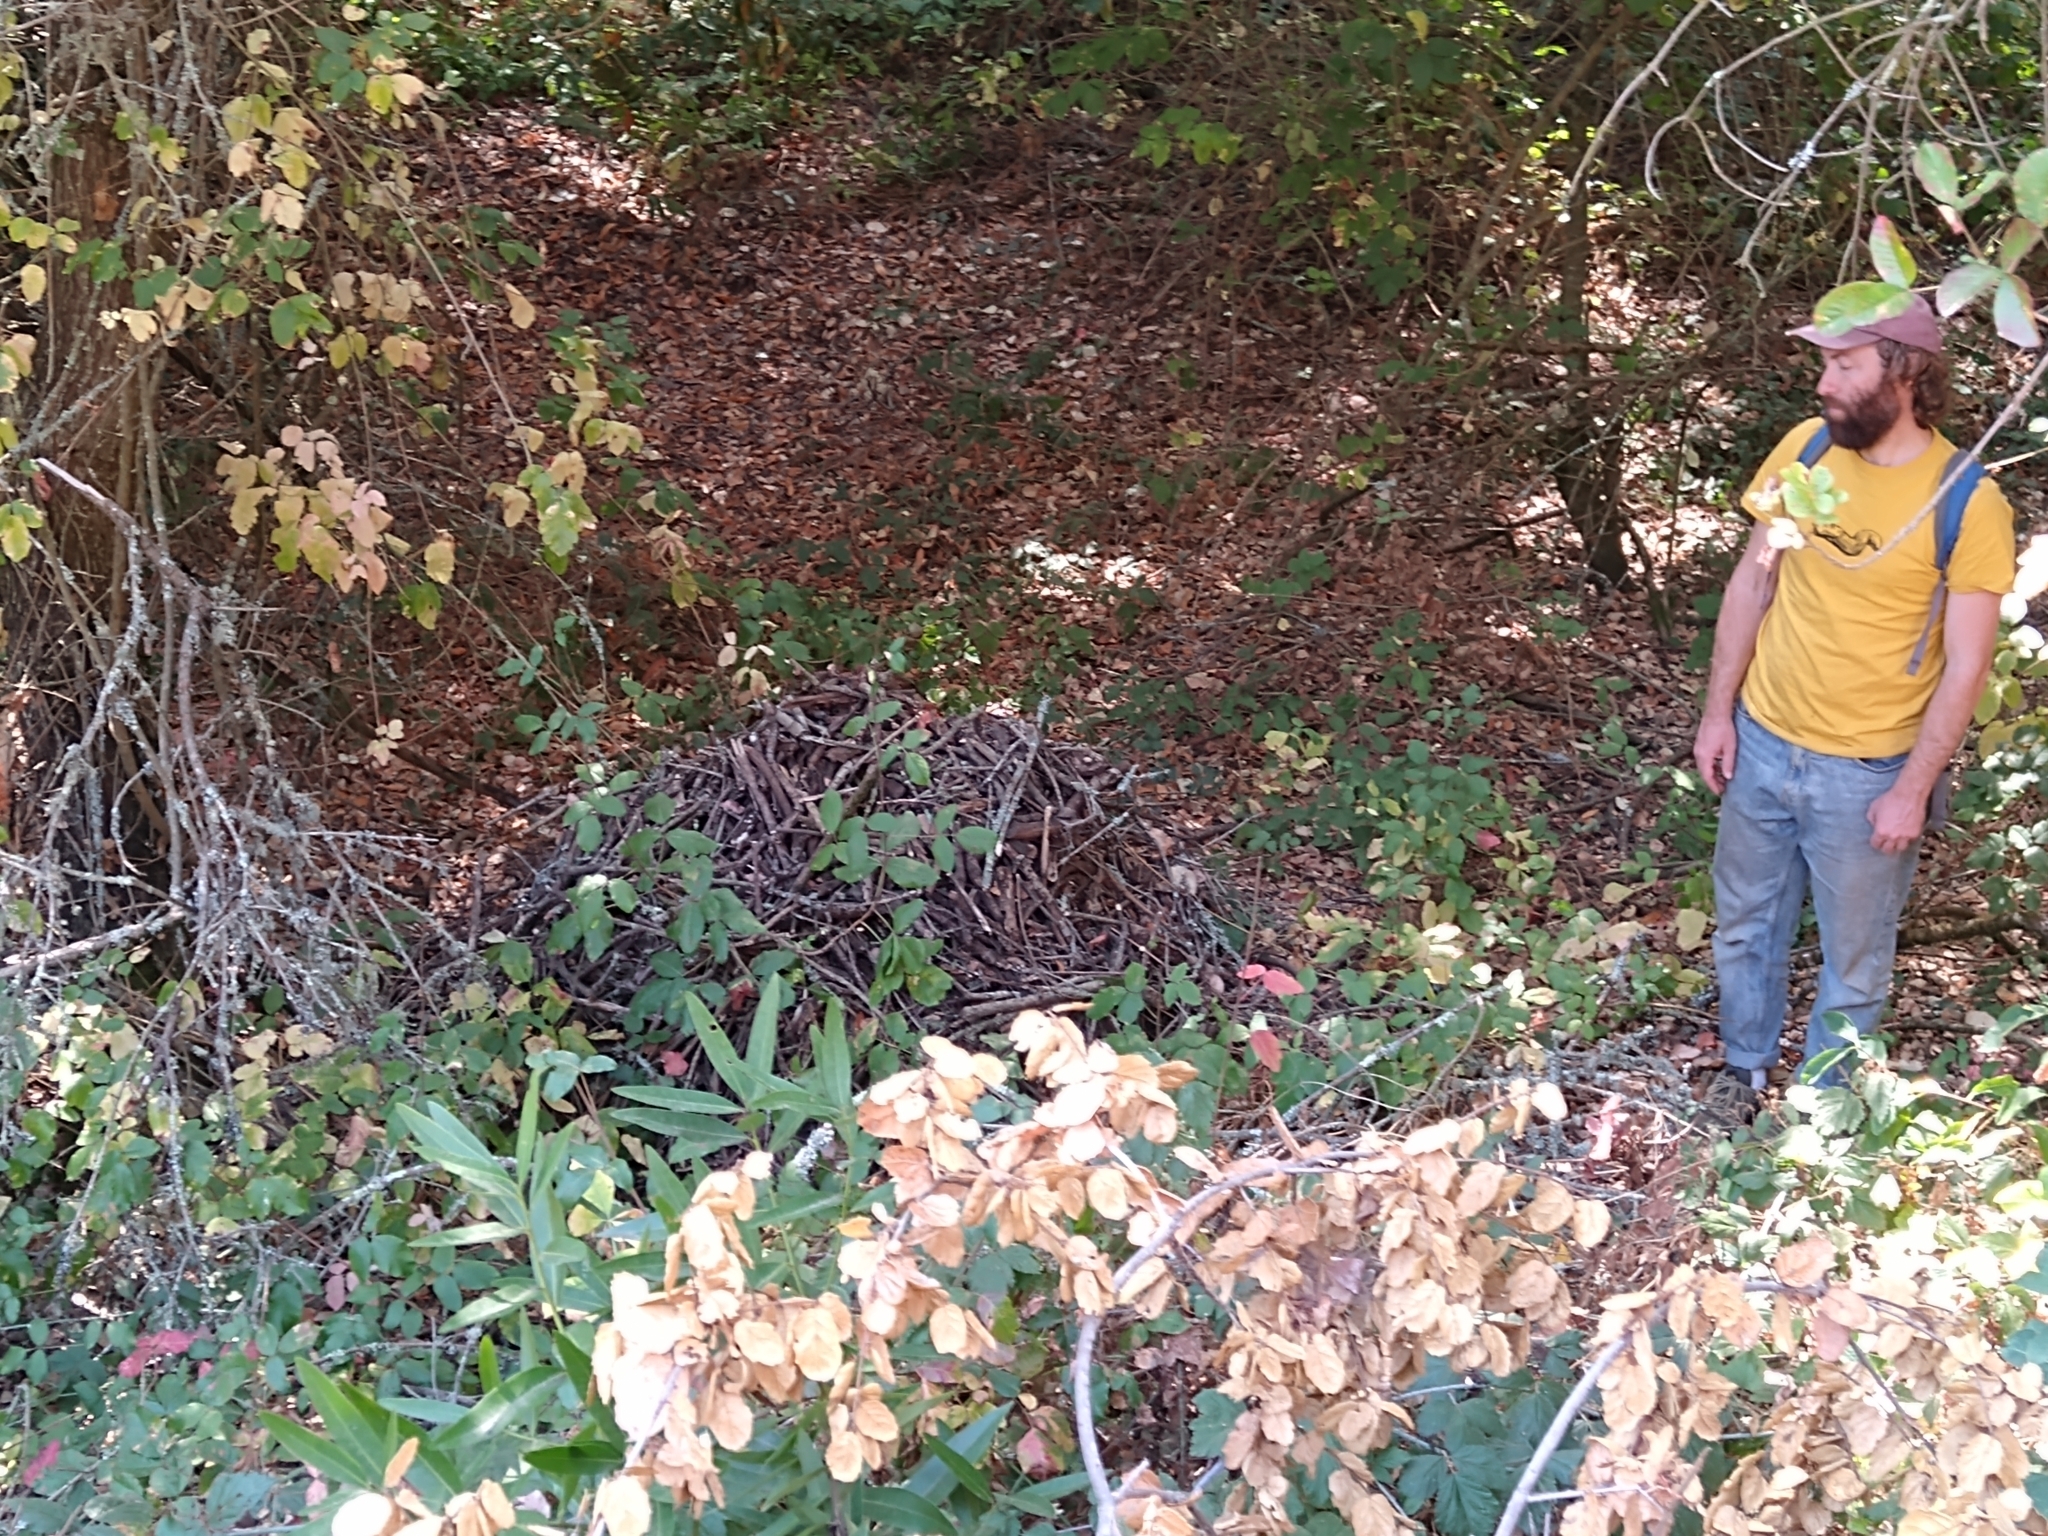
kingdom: Animalia
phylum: Chordata
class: Mammalia
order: Rodentia
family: Cricetidae
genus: Neotoma
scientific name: Neotoma fuscipes
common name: Dusky-footed woodrat
